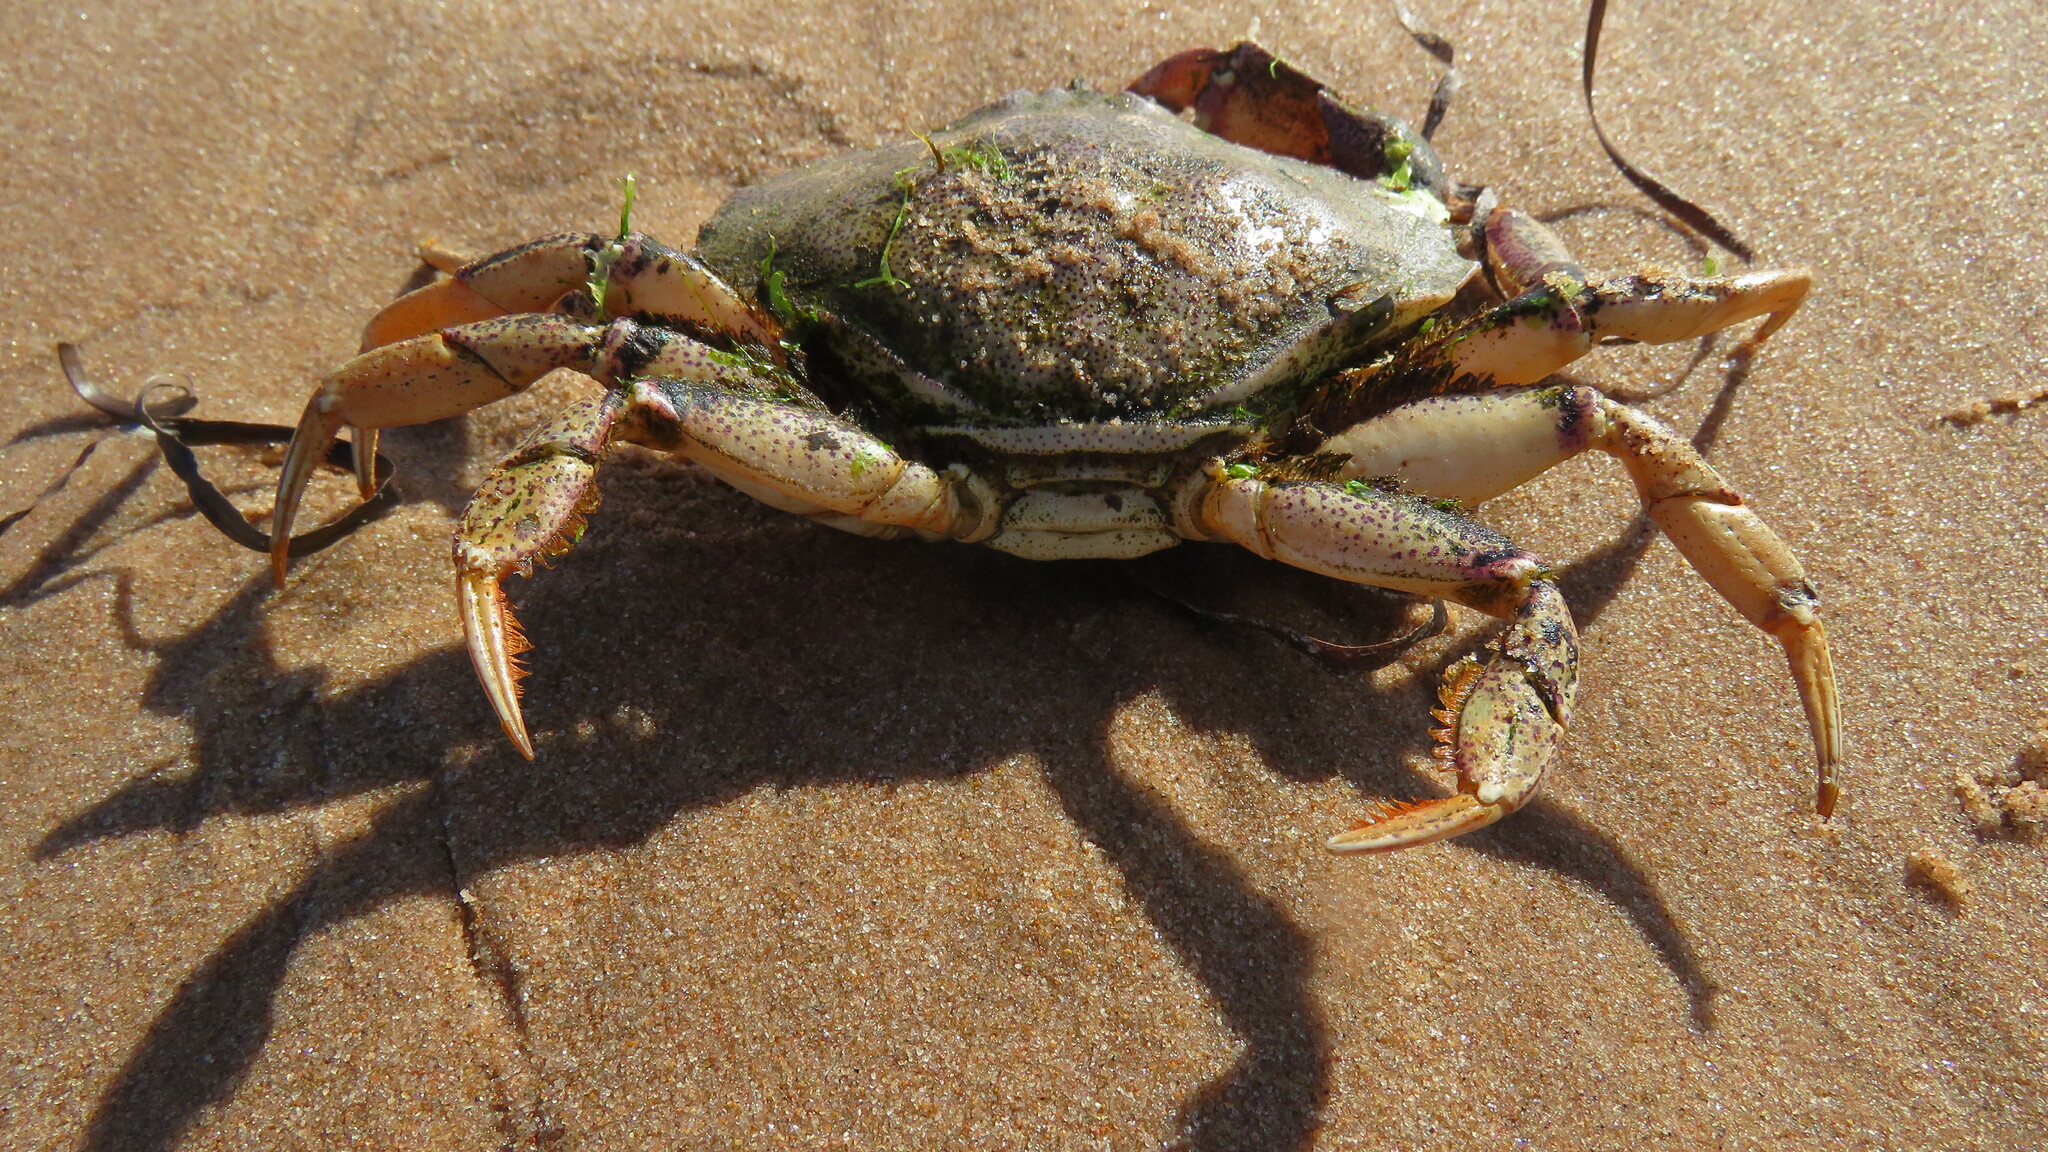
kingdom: Animalia
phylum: Arthropoda
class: Malacostraca
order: Decapoda
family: Cancridae
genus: Cancer
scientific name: Cancer irroratus
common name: Atlantic rock crab
